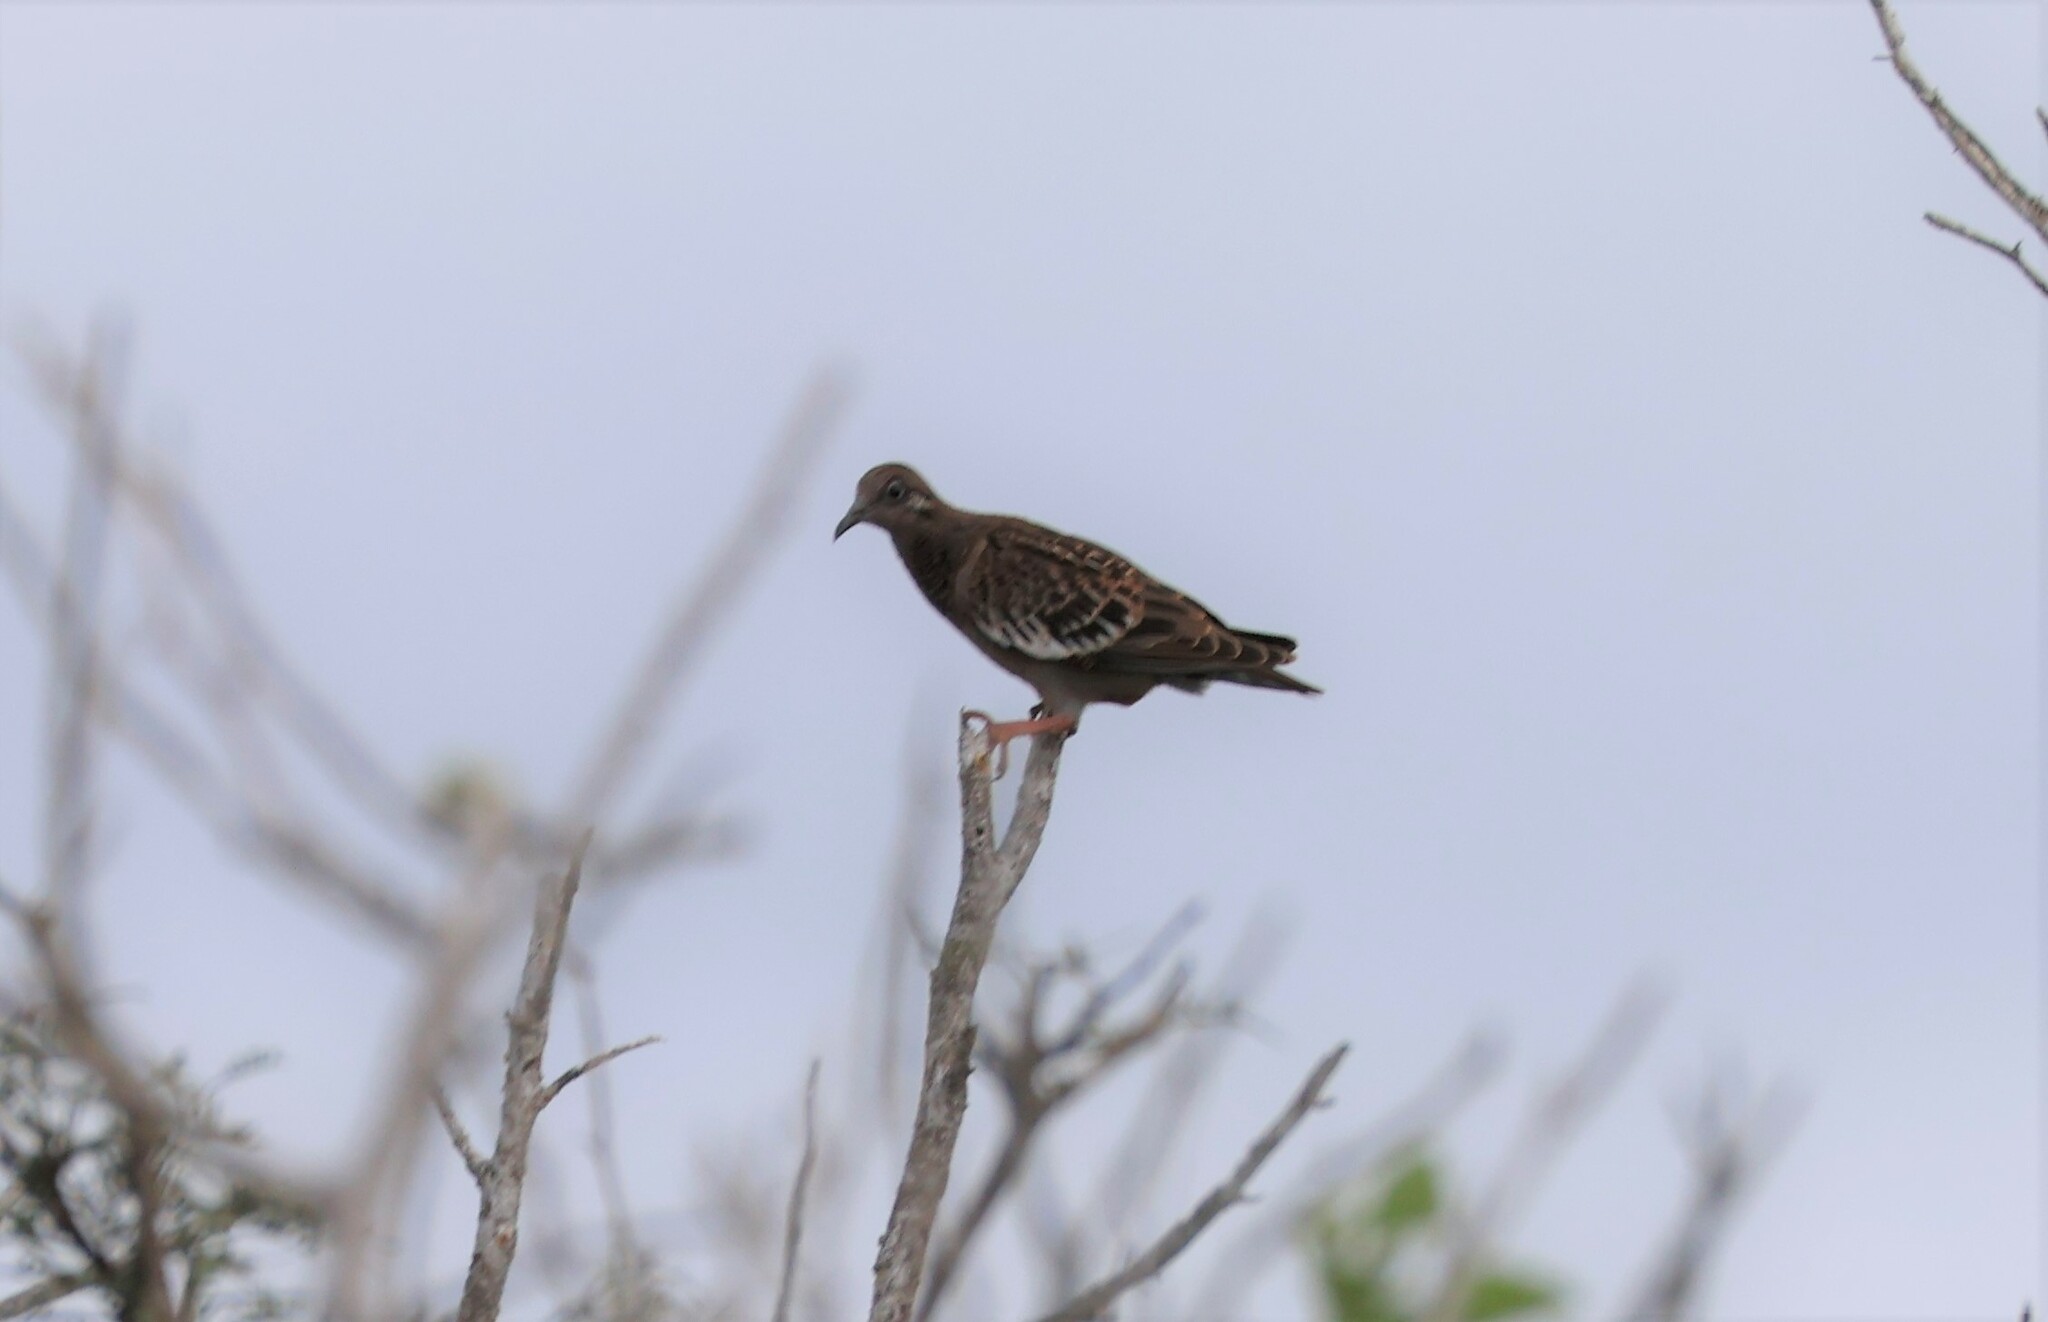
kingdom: Animalia
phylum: Chordata
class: Aves
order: Columbiformes
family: Columbidae
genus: Zenaida
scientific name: Zenaida galapagoensis
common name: Galapagos dove
